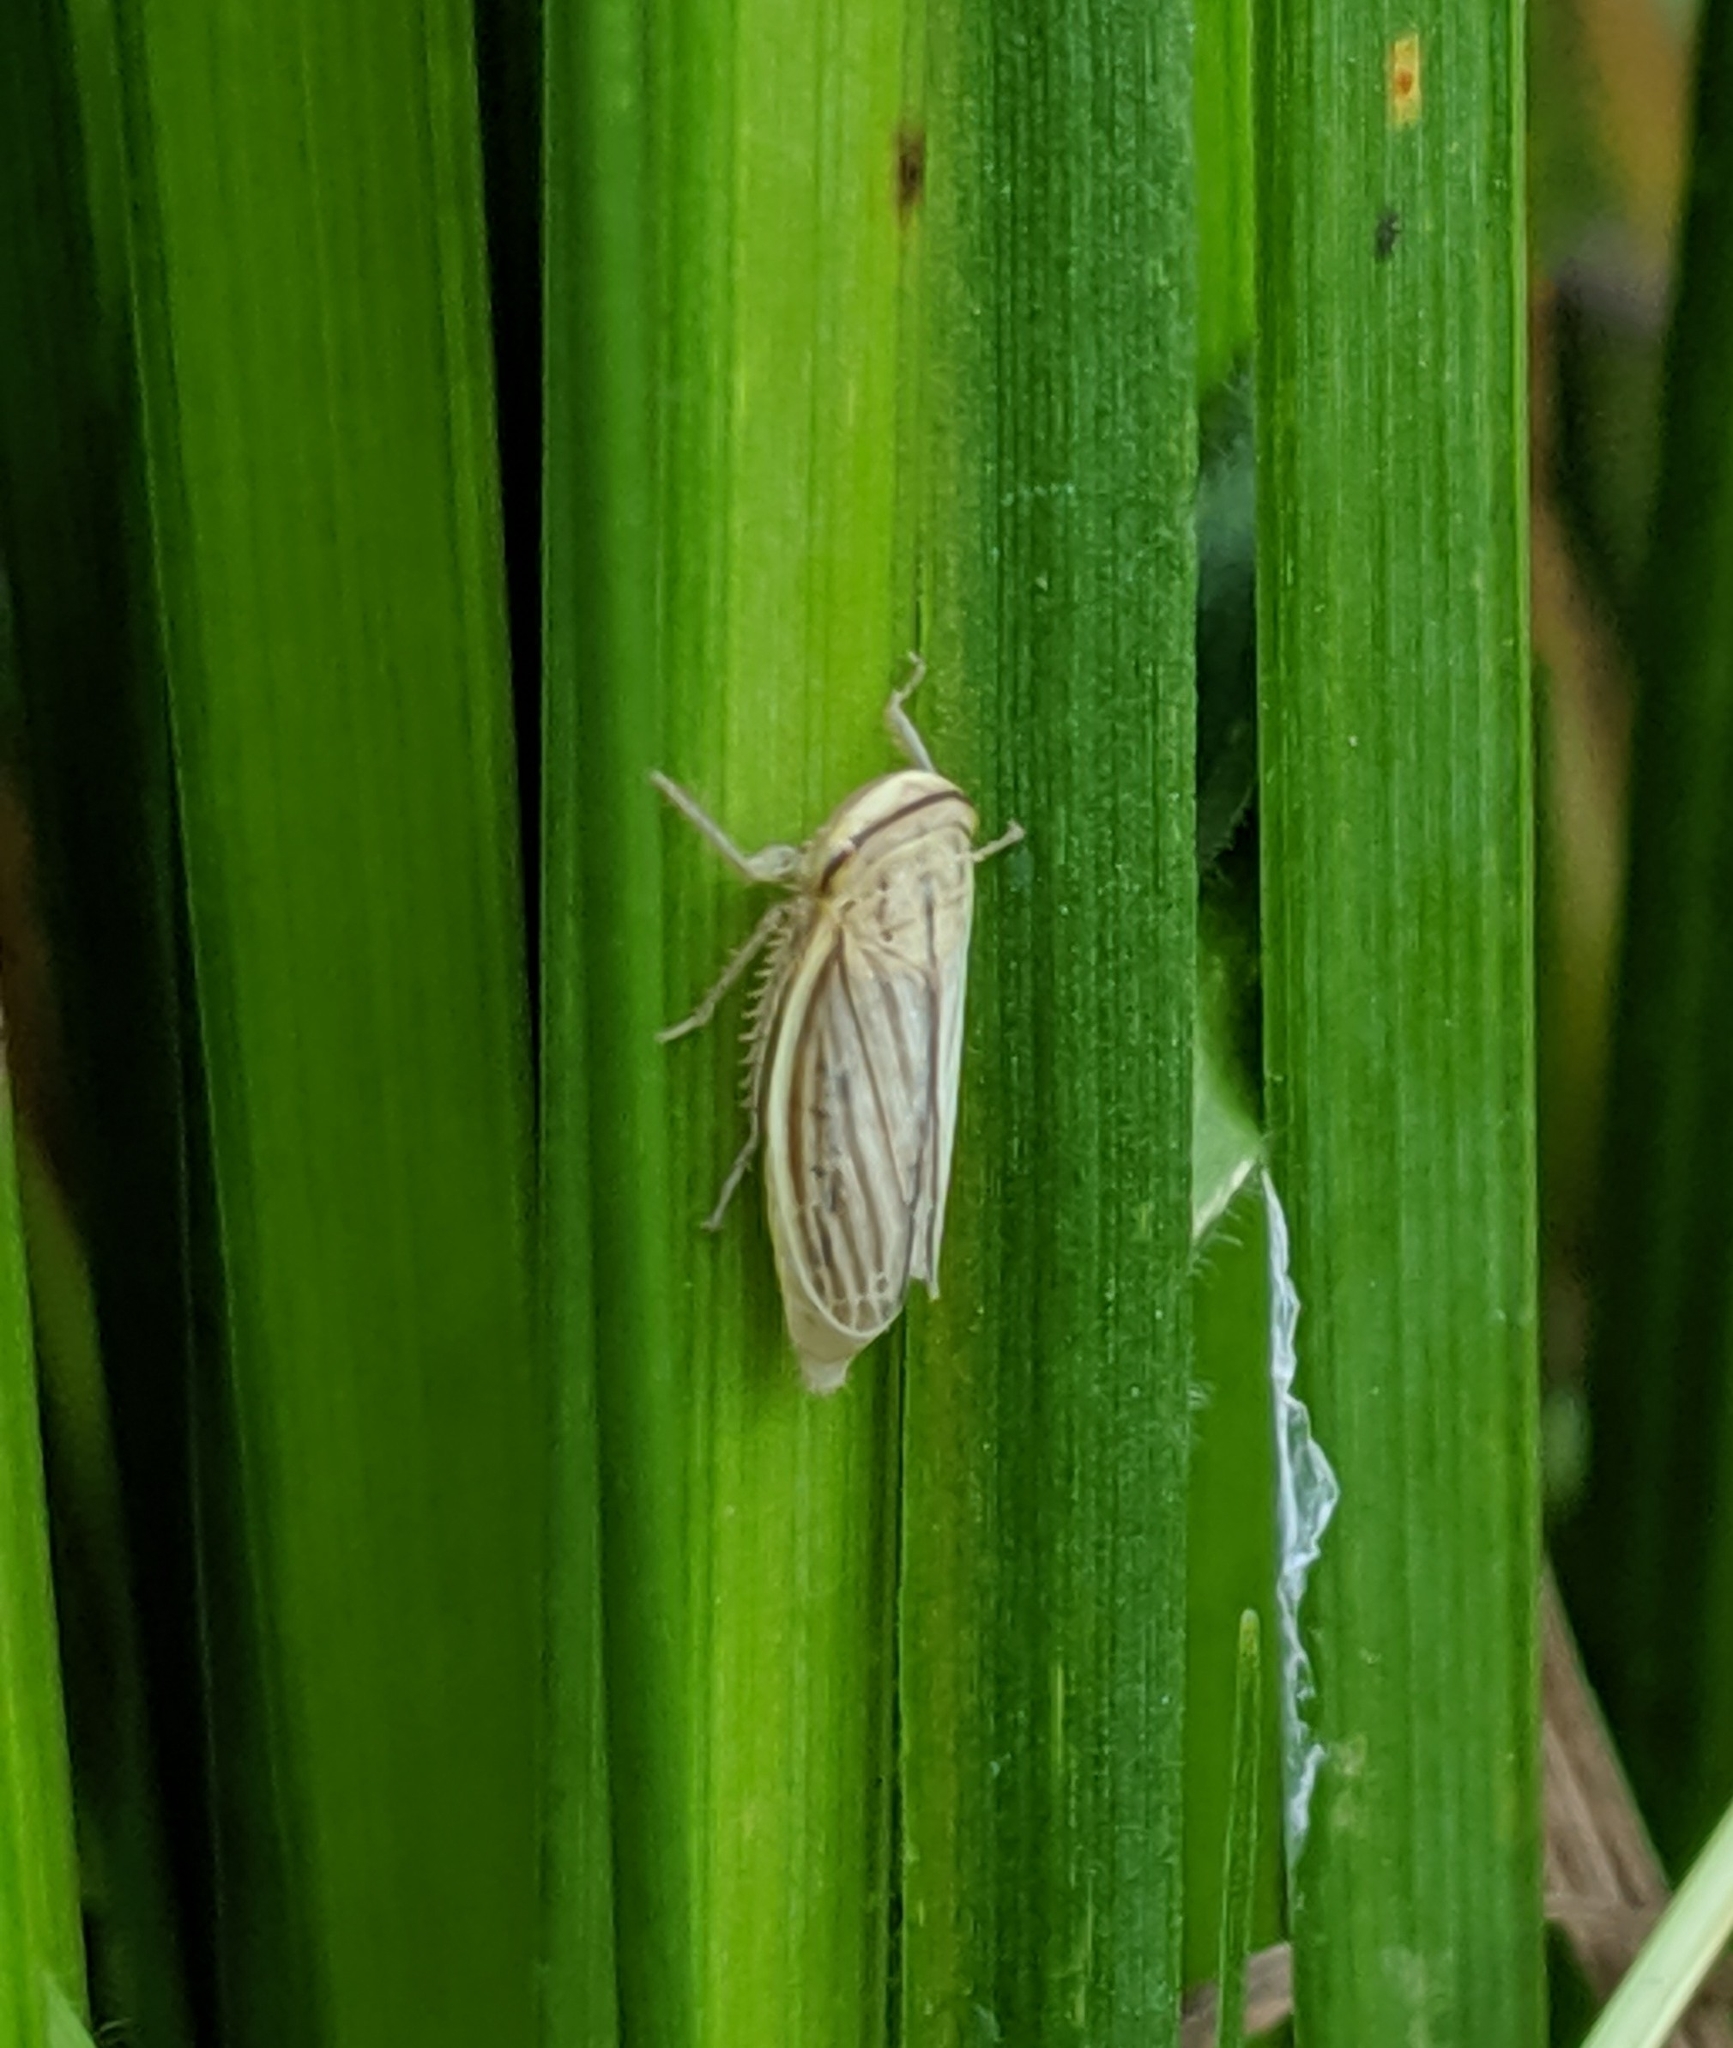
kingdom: Animalia
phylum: Arthropoda
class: Insecta
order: Hemiptera
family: Cicadellidae
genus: Athysanus
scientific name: Athysanus argentarius
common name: Silver leafhopper
